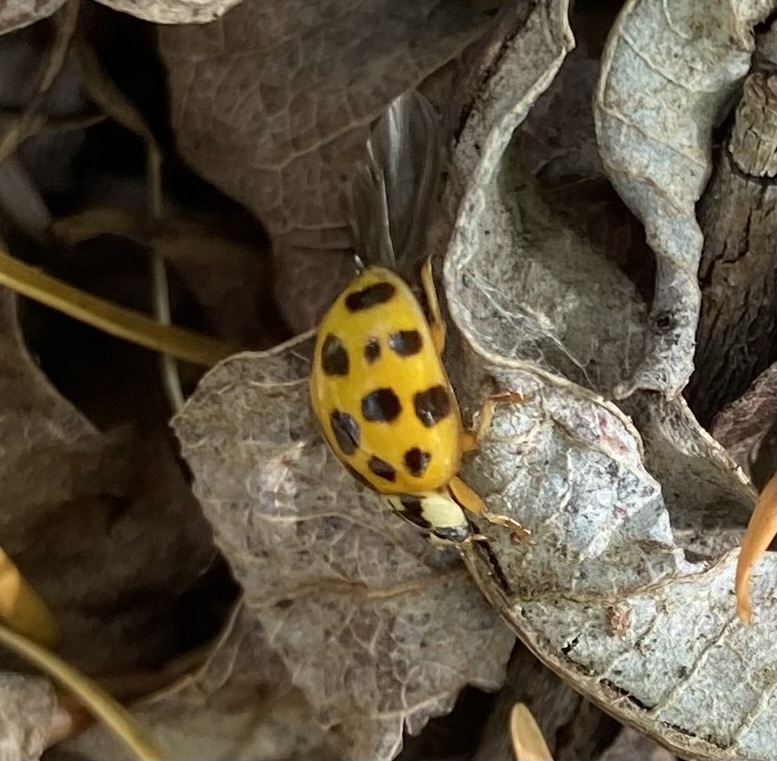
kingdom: Animalia
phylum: Arthropoda
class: Insecta
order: Coleoptera
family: Coccinellidae
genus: Harmonia
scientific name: Harmonia axyridis
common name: Harlequin ladybird
